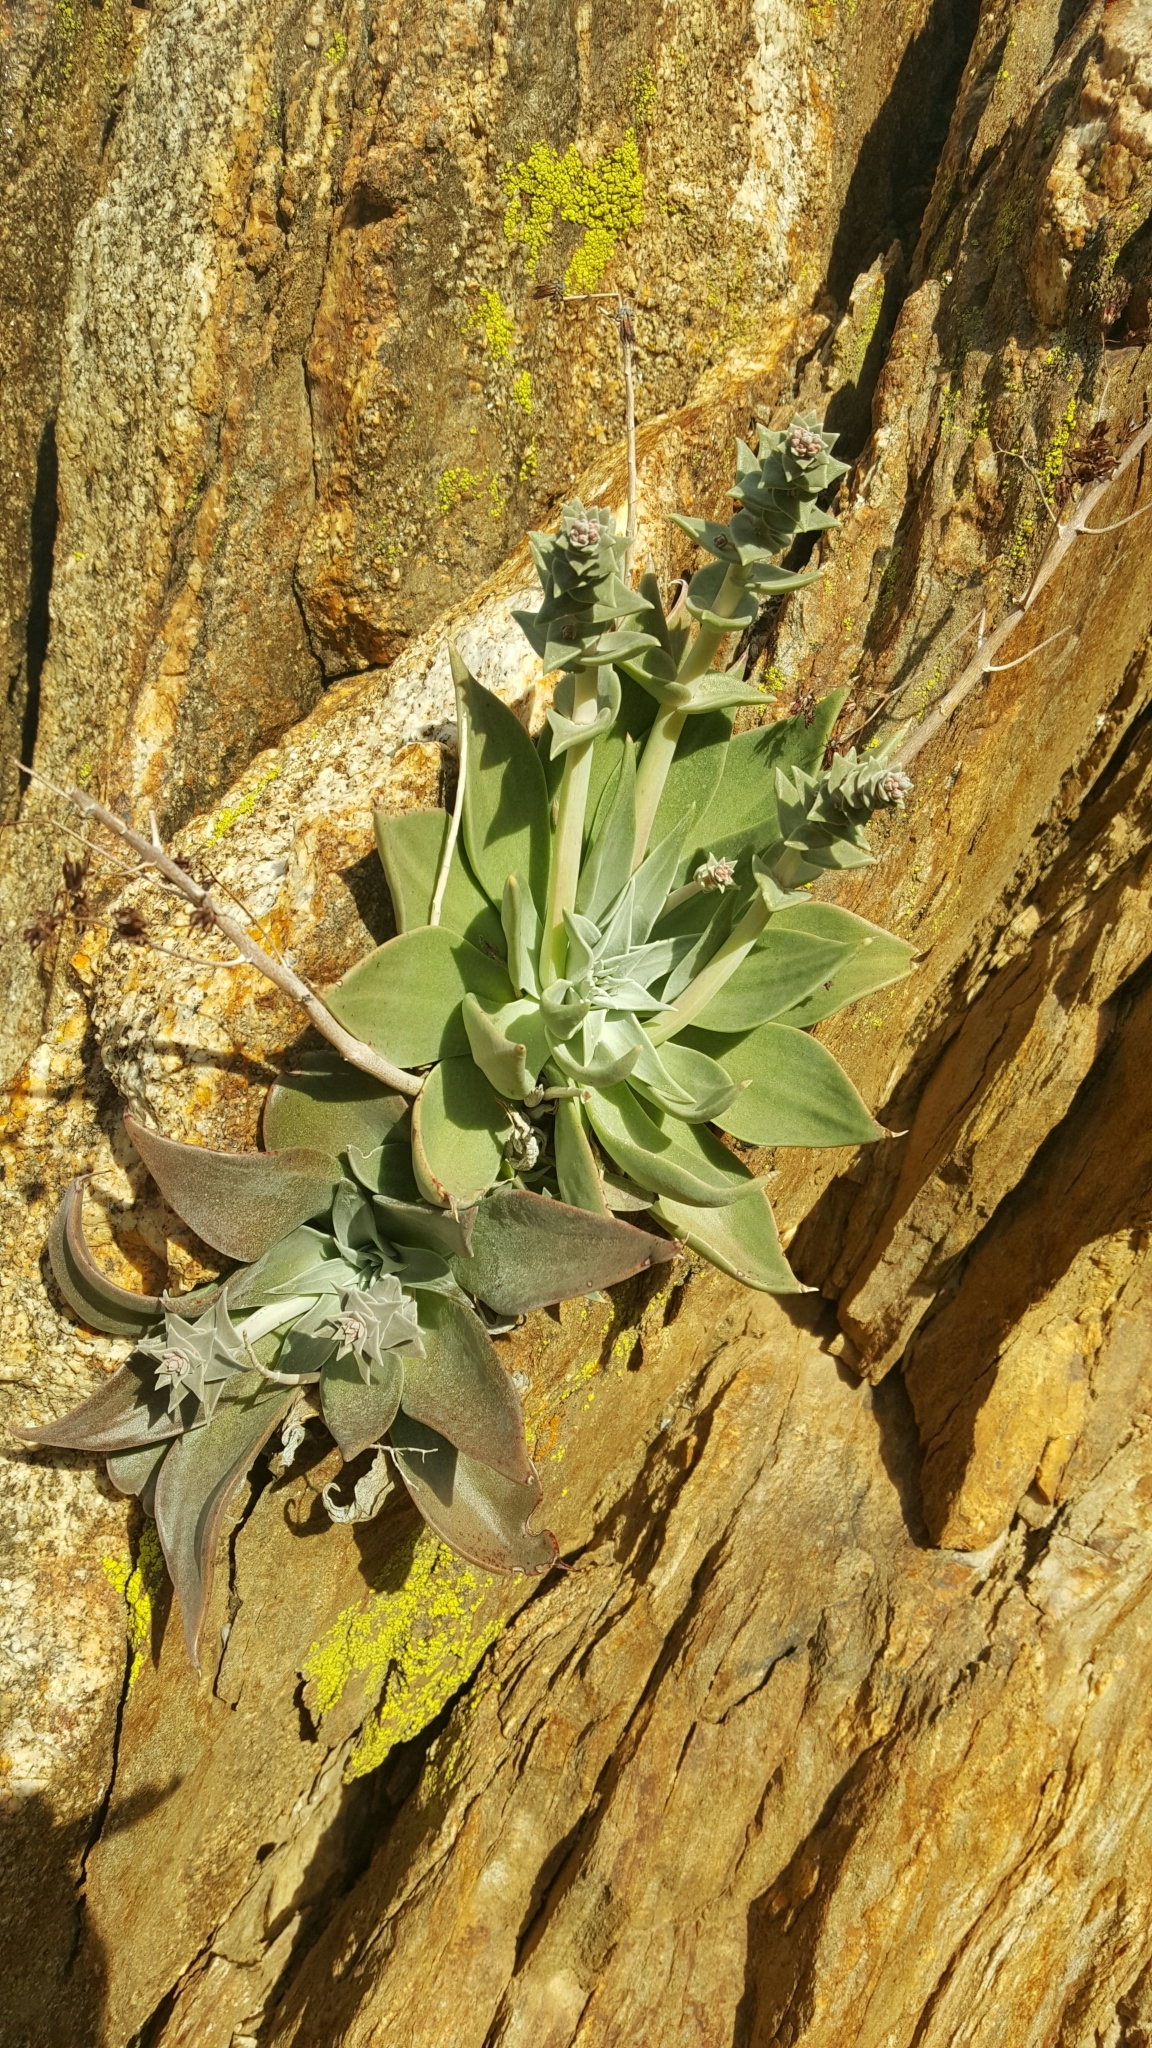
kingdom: Plantae
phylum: Tracheophyta
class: Magnoliopsida
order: Saxifragales
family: Crassulaceae
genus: Dudleya
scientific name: Dudleya arizonica
